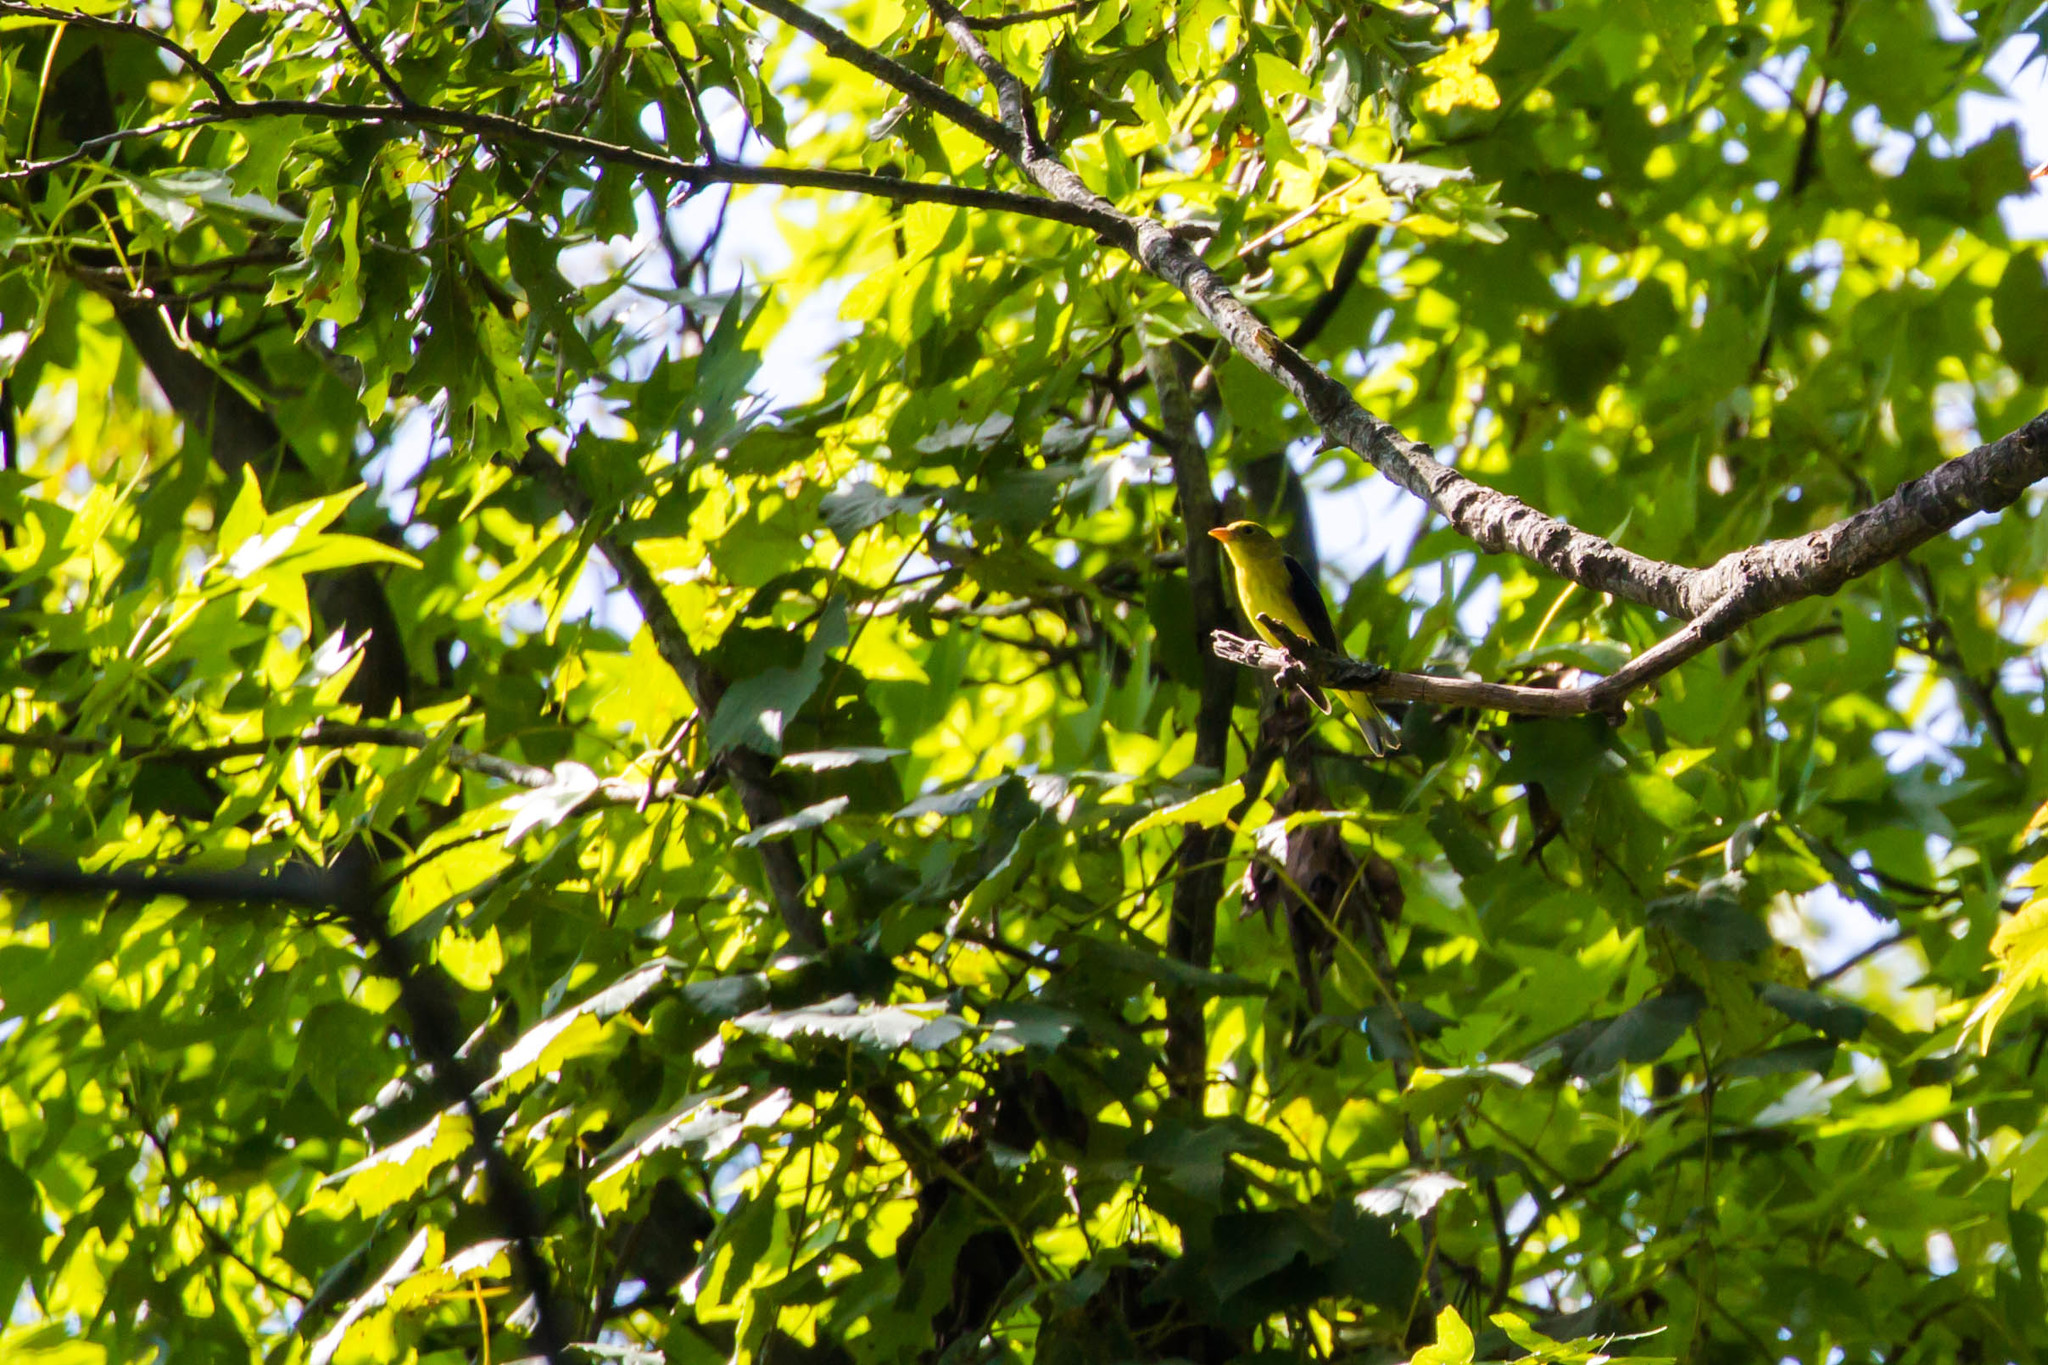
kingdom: Animalia
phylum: Chordata
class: Aves
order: Passeriformes
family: Cardinalidae
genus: Piranga
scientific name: Piranga olivacea
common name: Scarlet tanager
